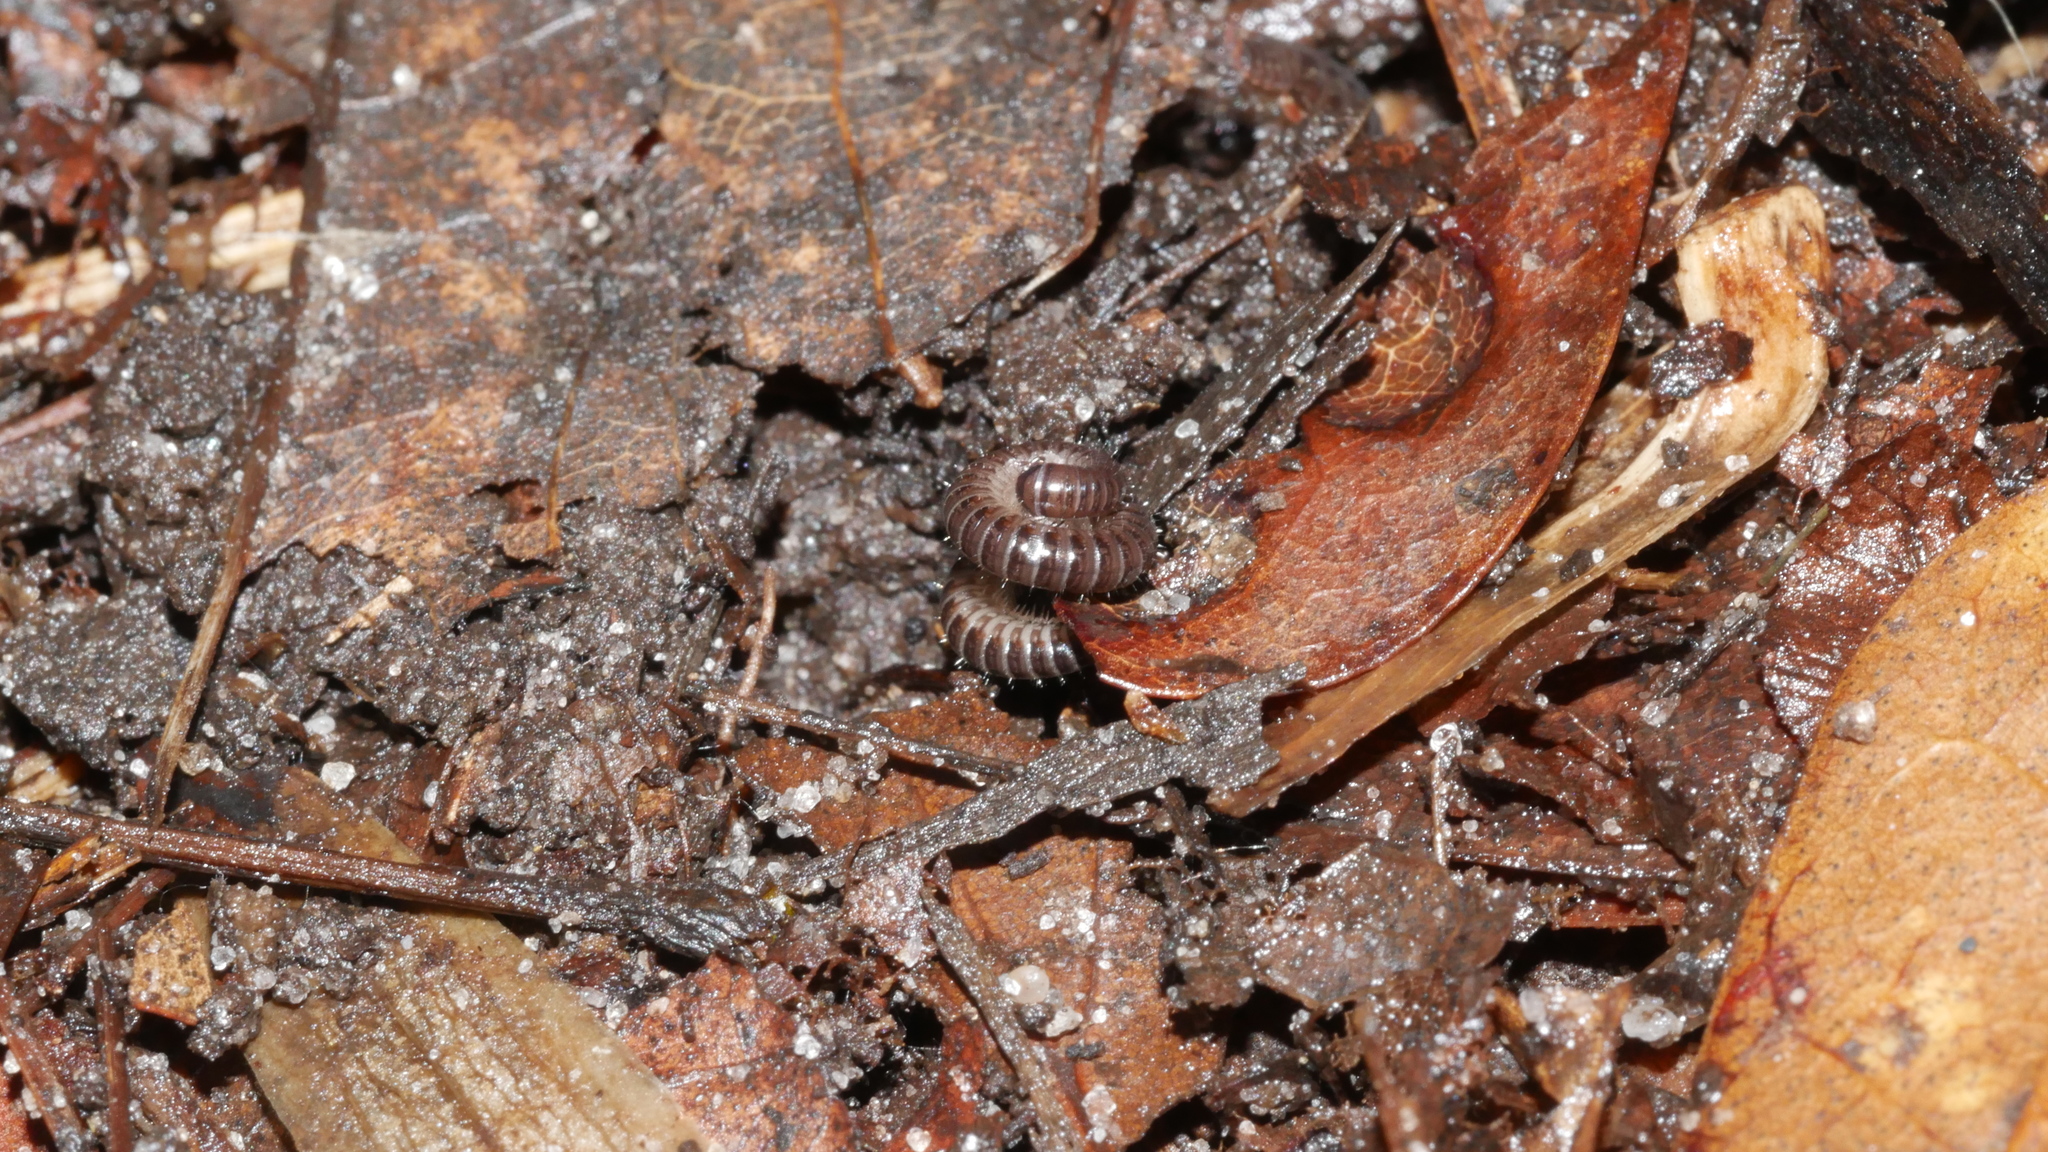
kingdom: Animalia
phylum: Arthropoda
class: Diplopoda
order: Julida
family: Julidae
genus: Ophyiulus
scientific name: Ophyiulus pilosus
